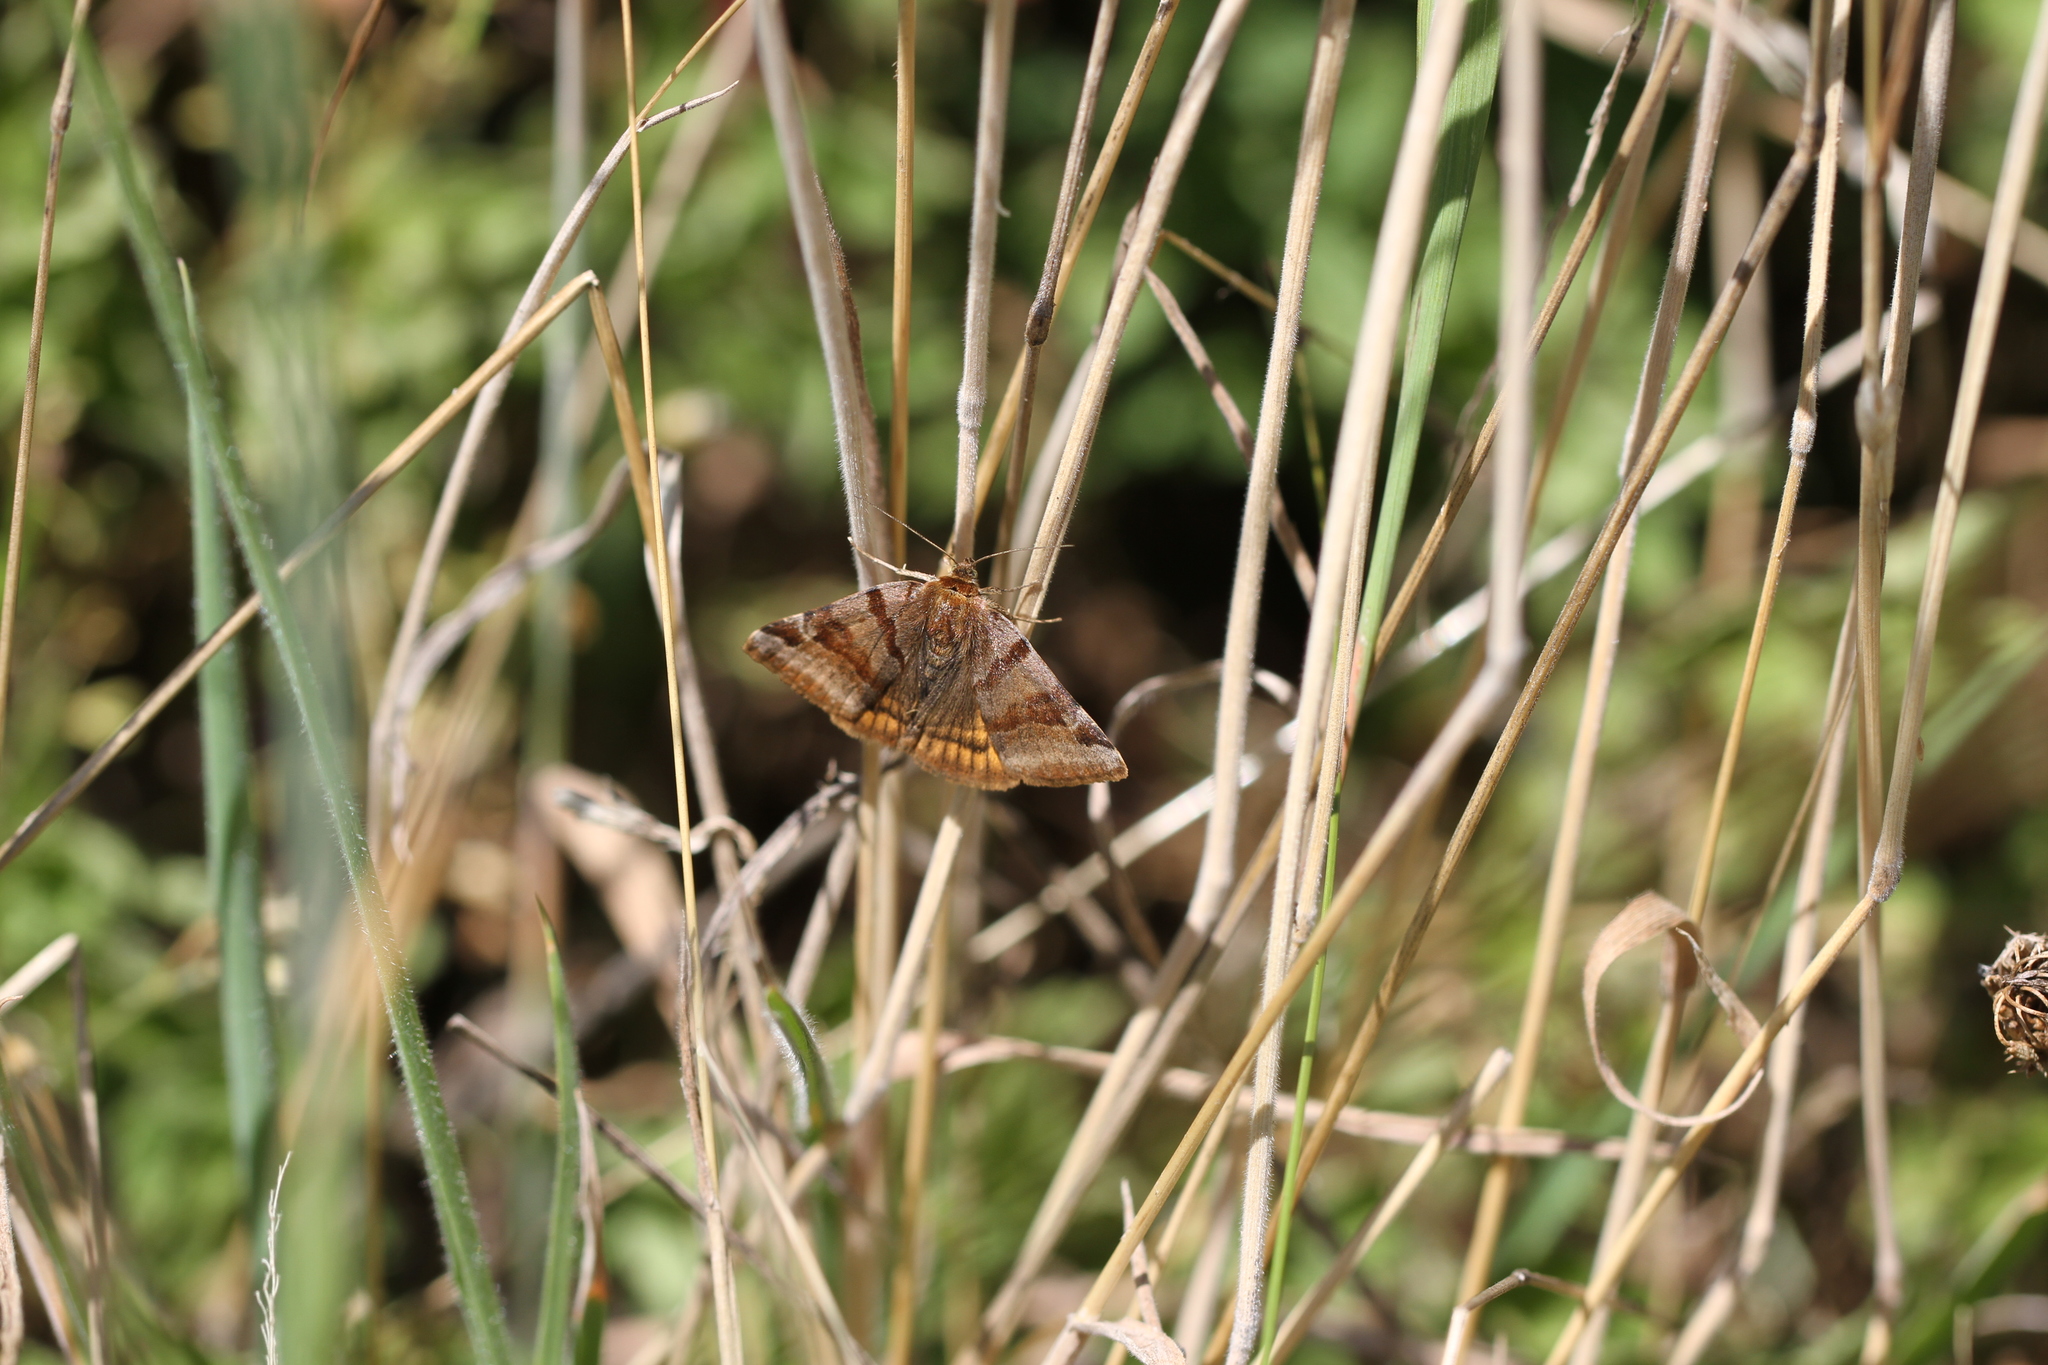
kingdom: Animalia
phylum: Arthropoda
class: Insecta
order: Lepidoptera
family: Erebidae
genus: Euclidia
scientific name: Euclidia glyphica
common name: Burnet companion
